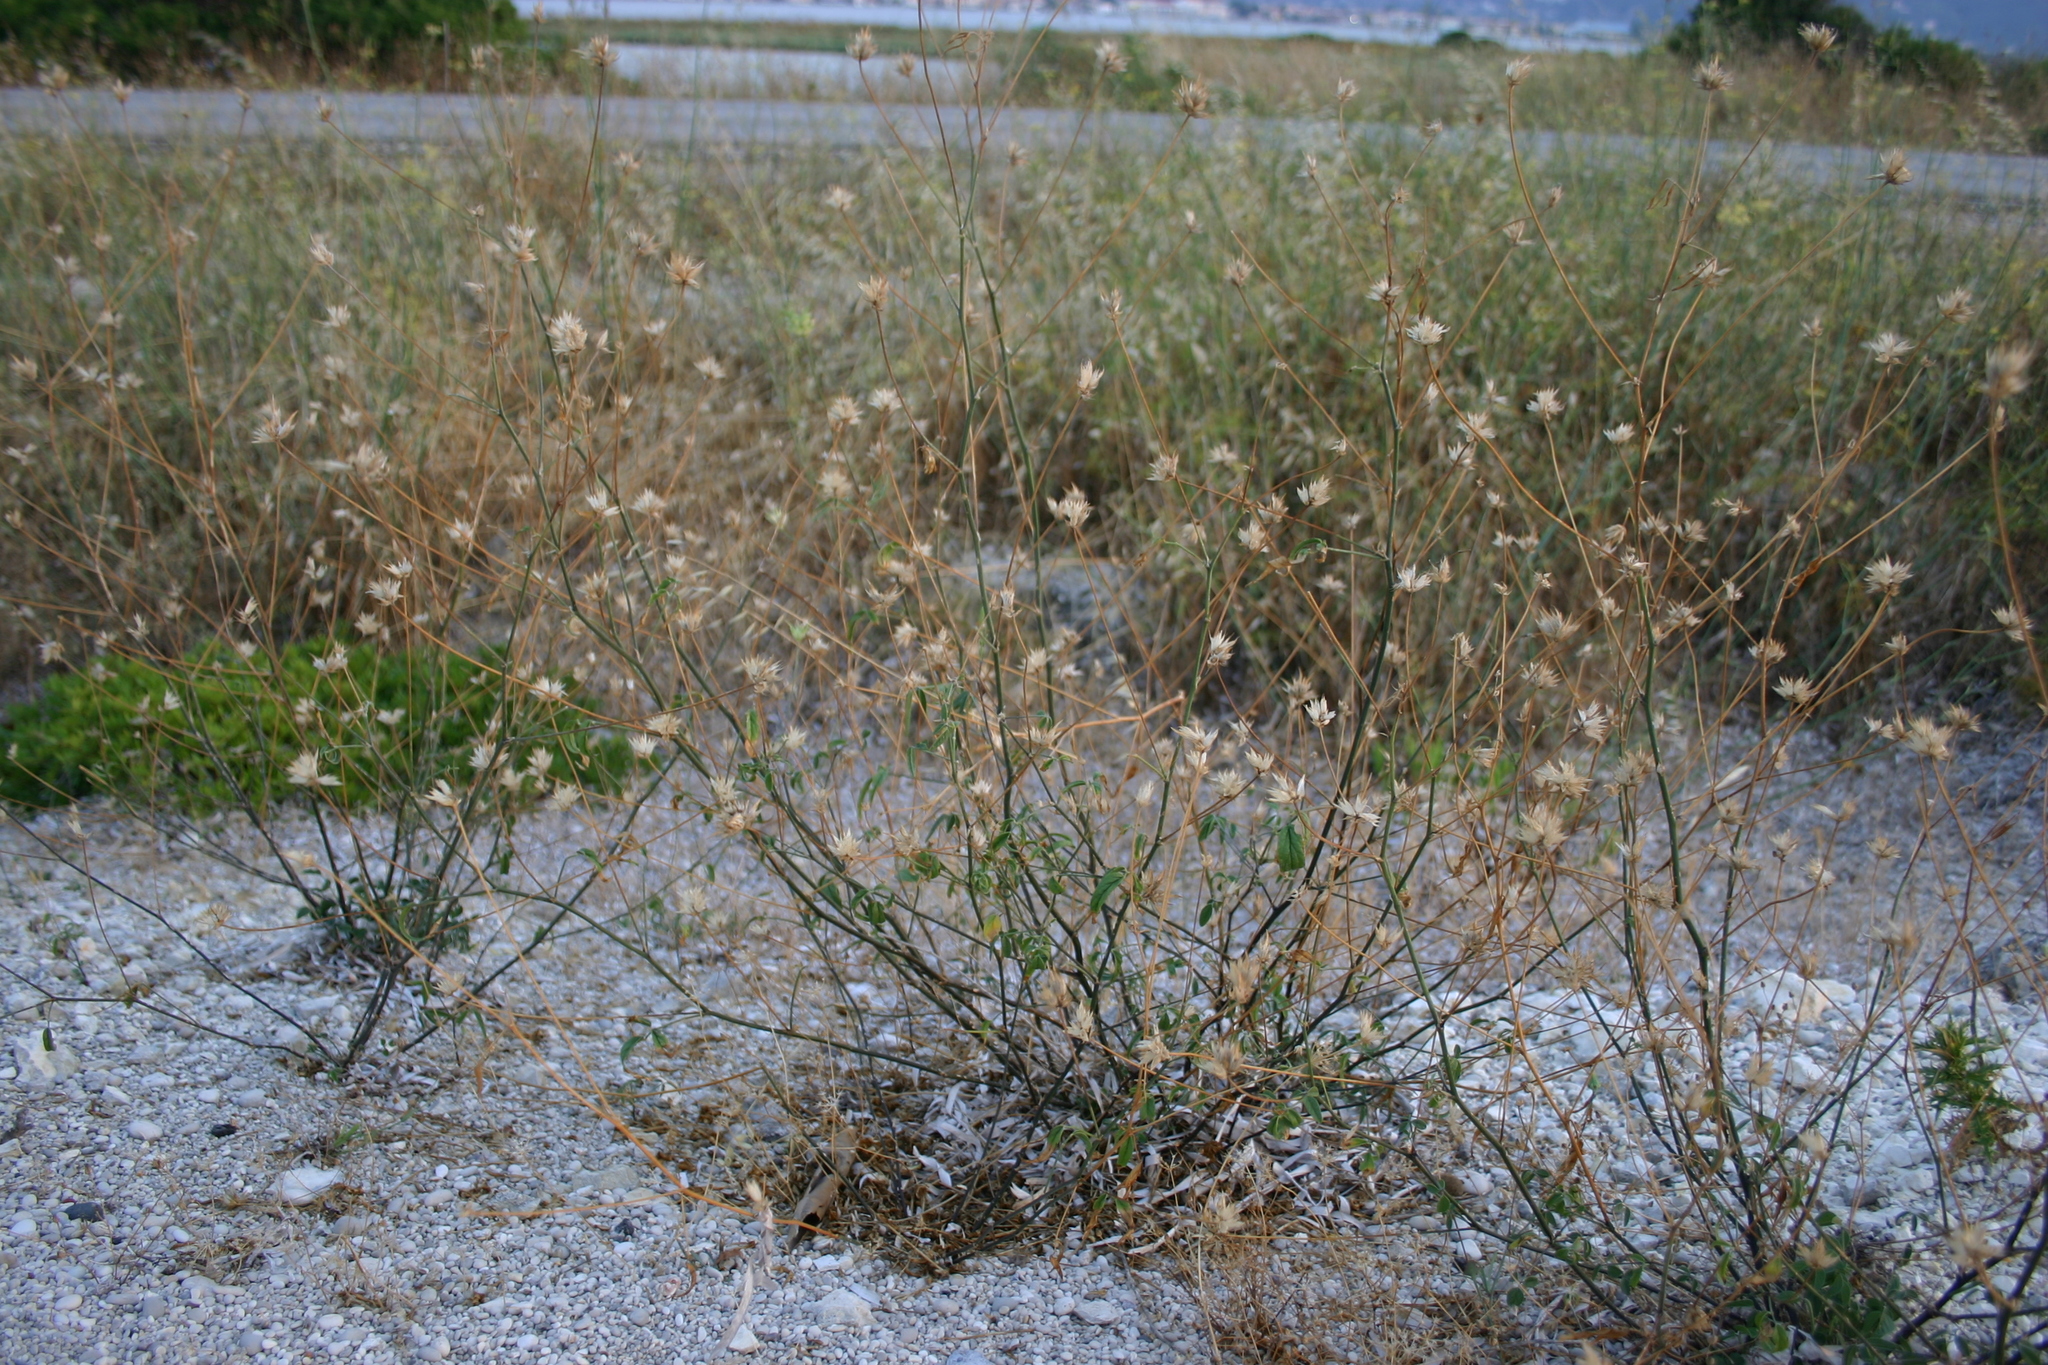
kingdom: Plantae
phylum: Tracheophyta
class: Magnoliopsida
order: Fabales
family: Fabaceae
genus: Bituminaria
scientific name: Bituminaria bituminosa
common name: Arabian pea
